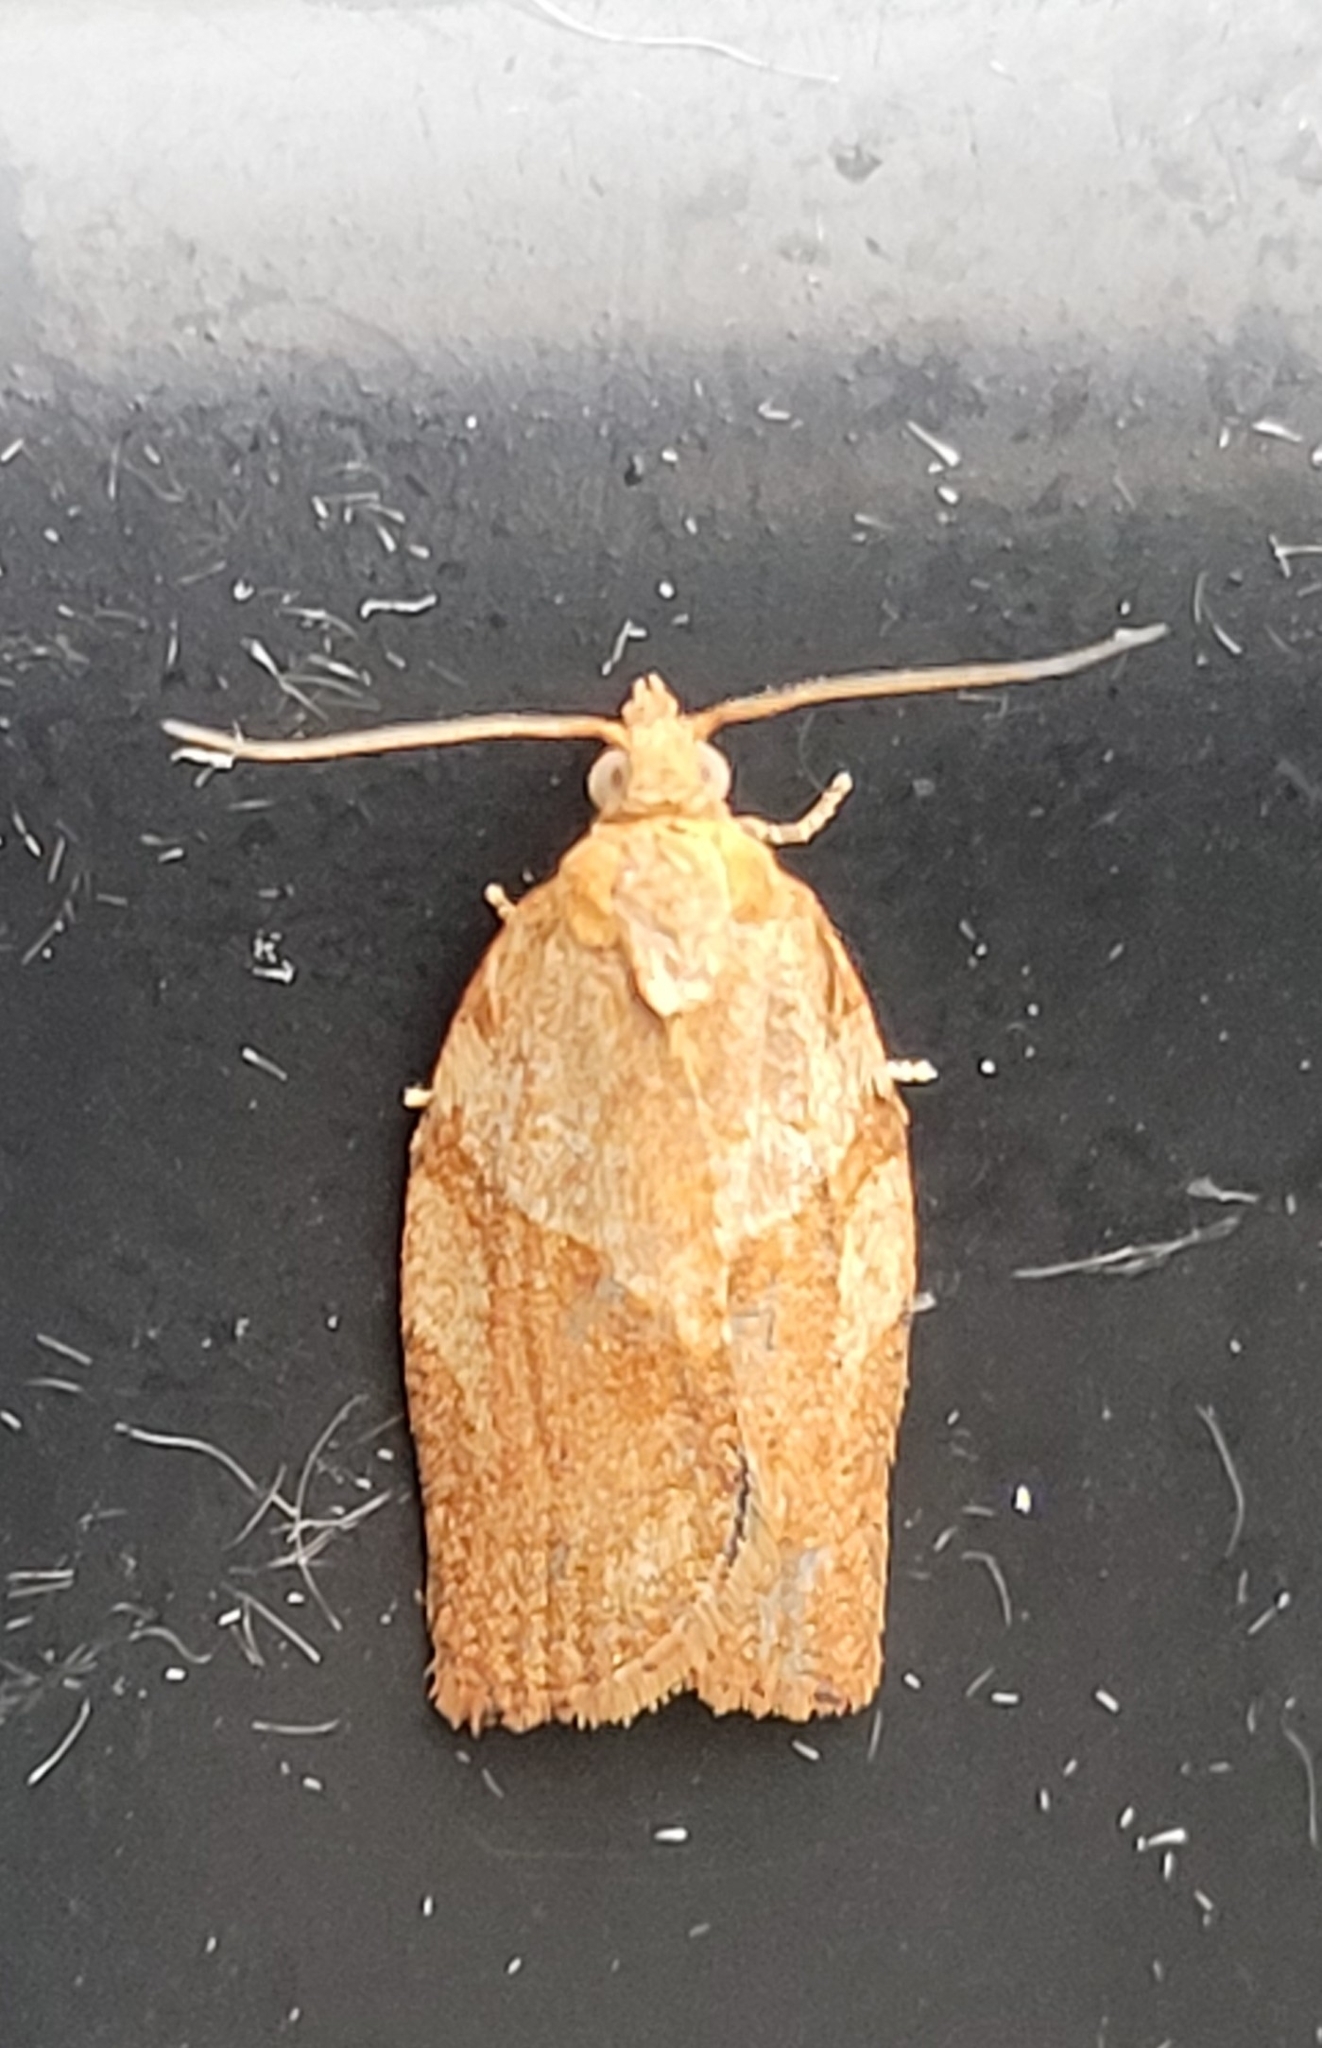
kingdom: Animalia
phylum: Arthropoda
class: Insecta
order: Lepidoptera
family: Tortricidae
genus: Epiphyas
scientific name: Epiphyas postvittana
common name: Light brown apple moth
